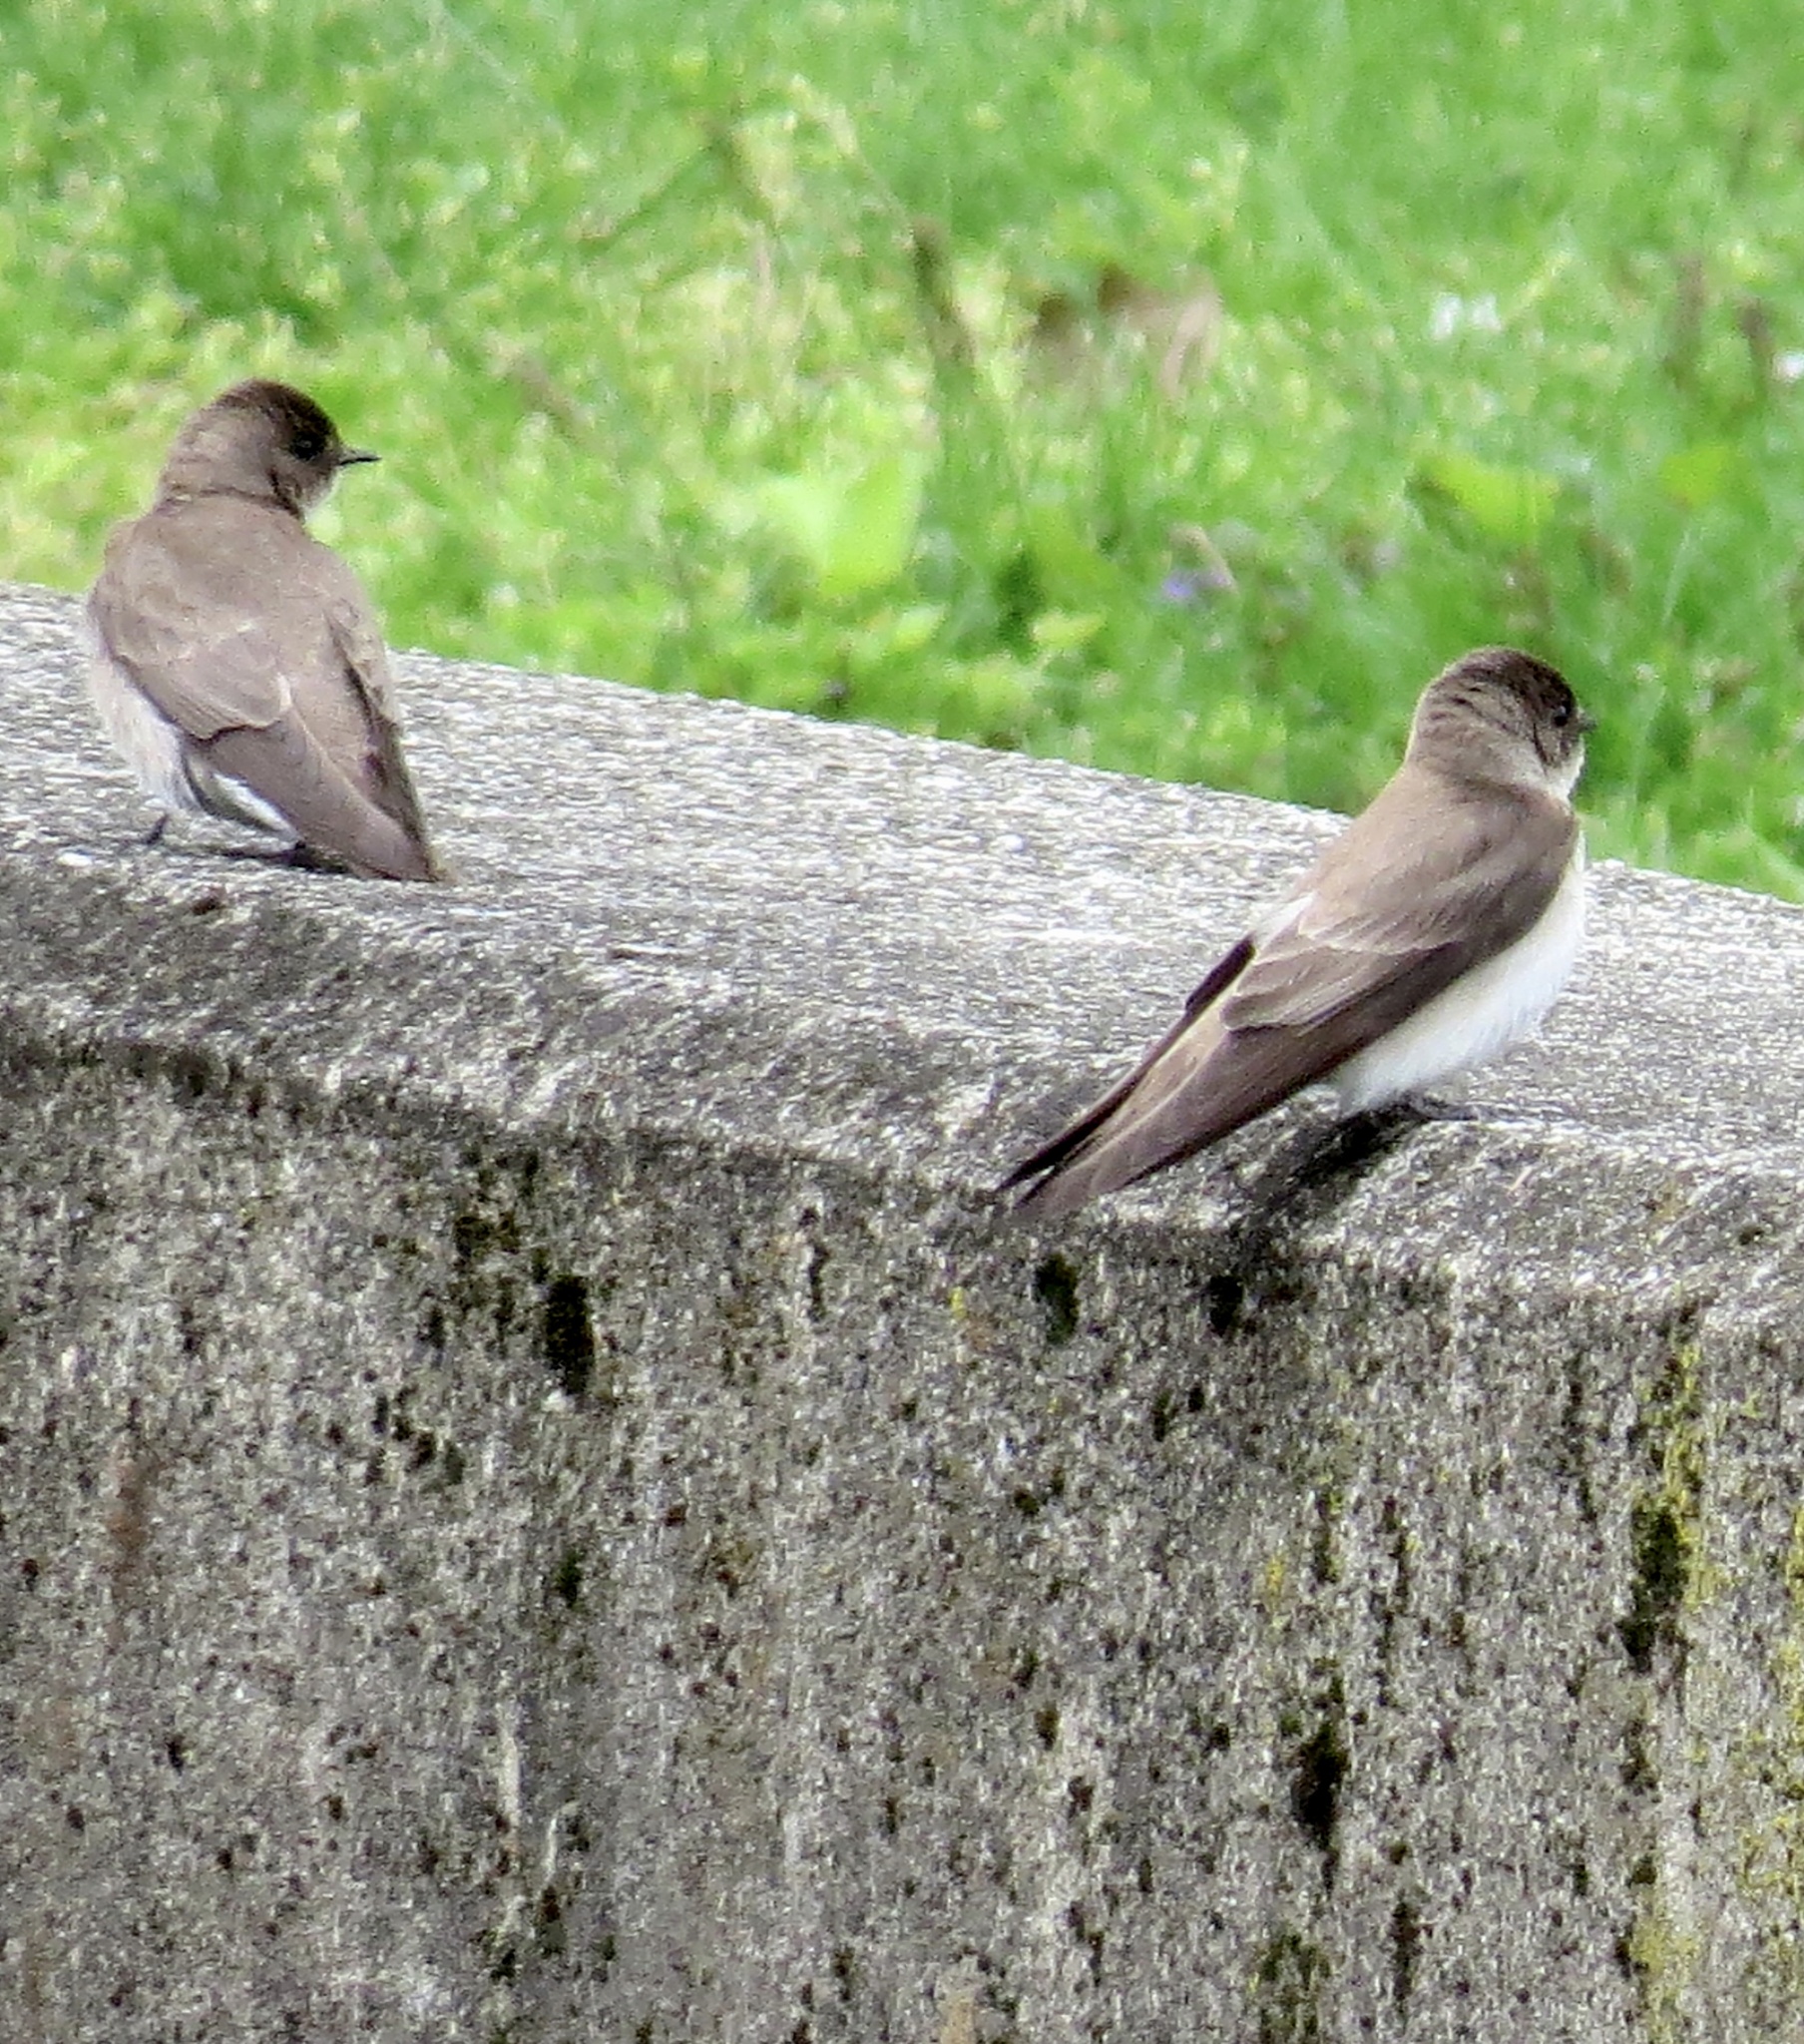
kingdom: Animalia
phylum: Chordata
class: Aves
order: Passeriformes
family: Hirundinidae
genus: Stelgidopteryx
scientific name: Stelgidopteryx serripennis
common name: Northern rough-winged swallow
